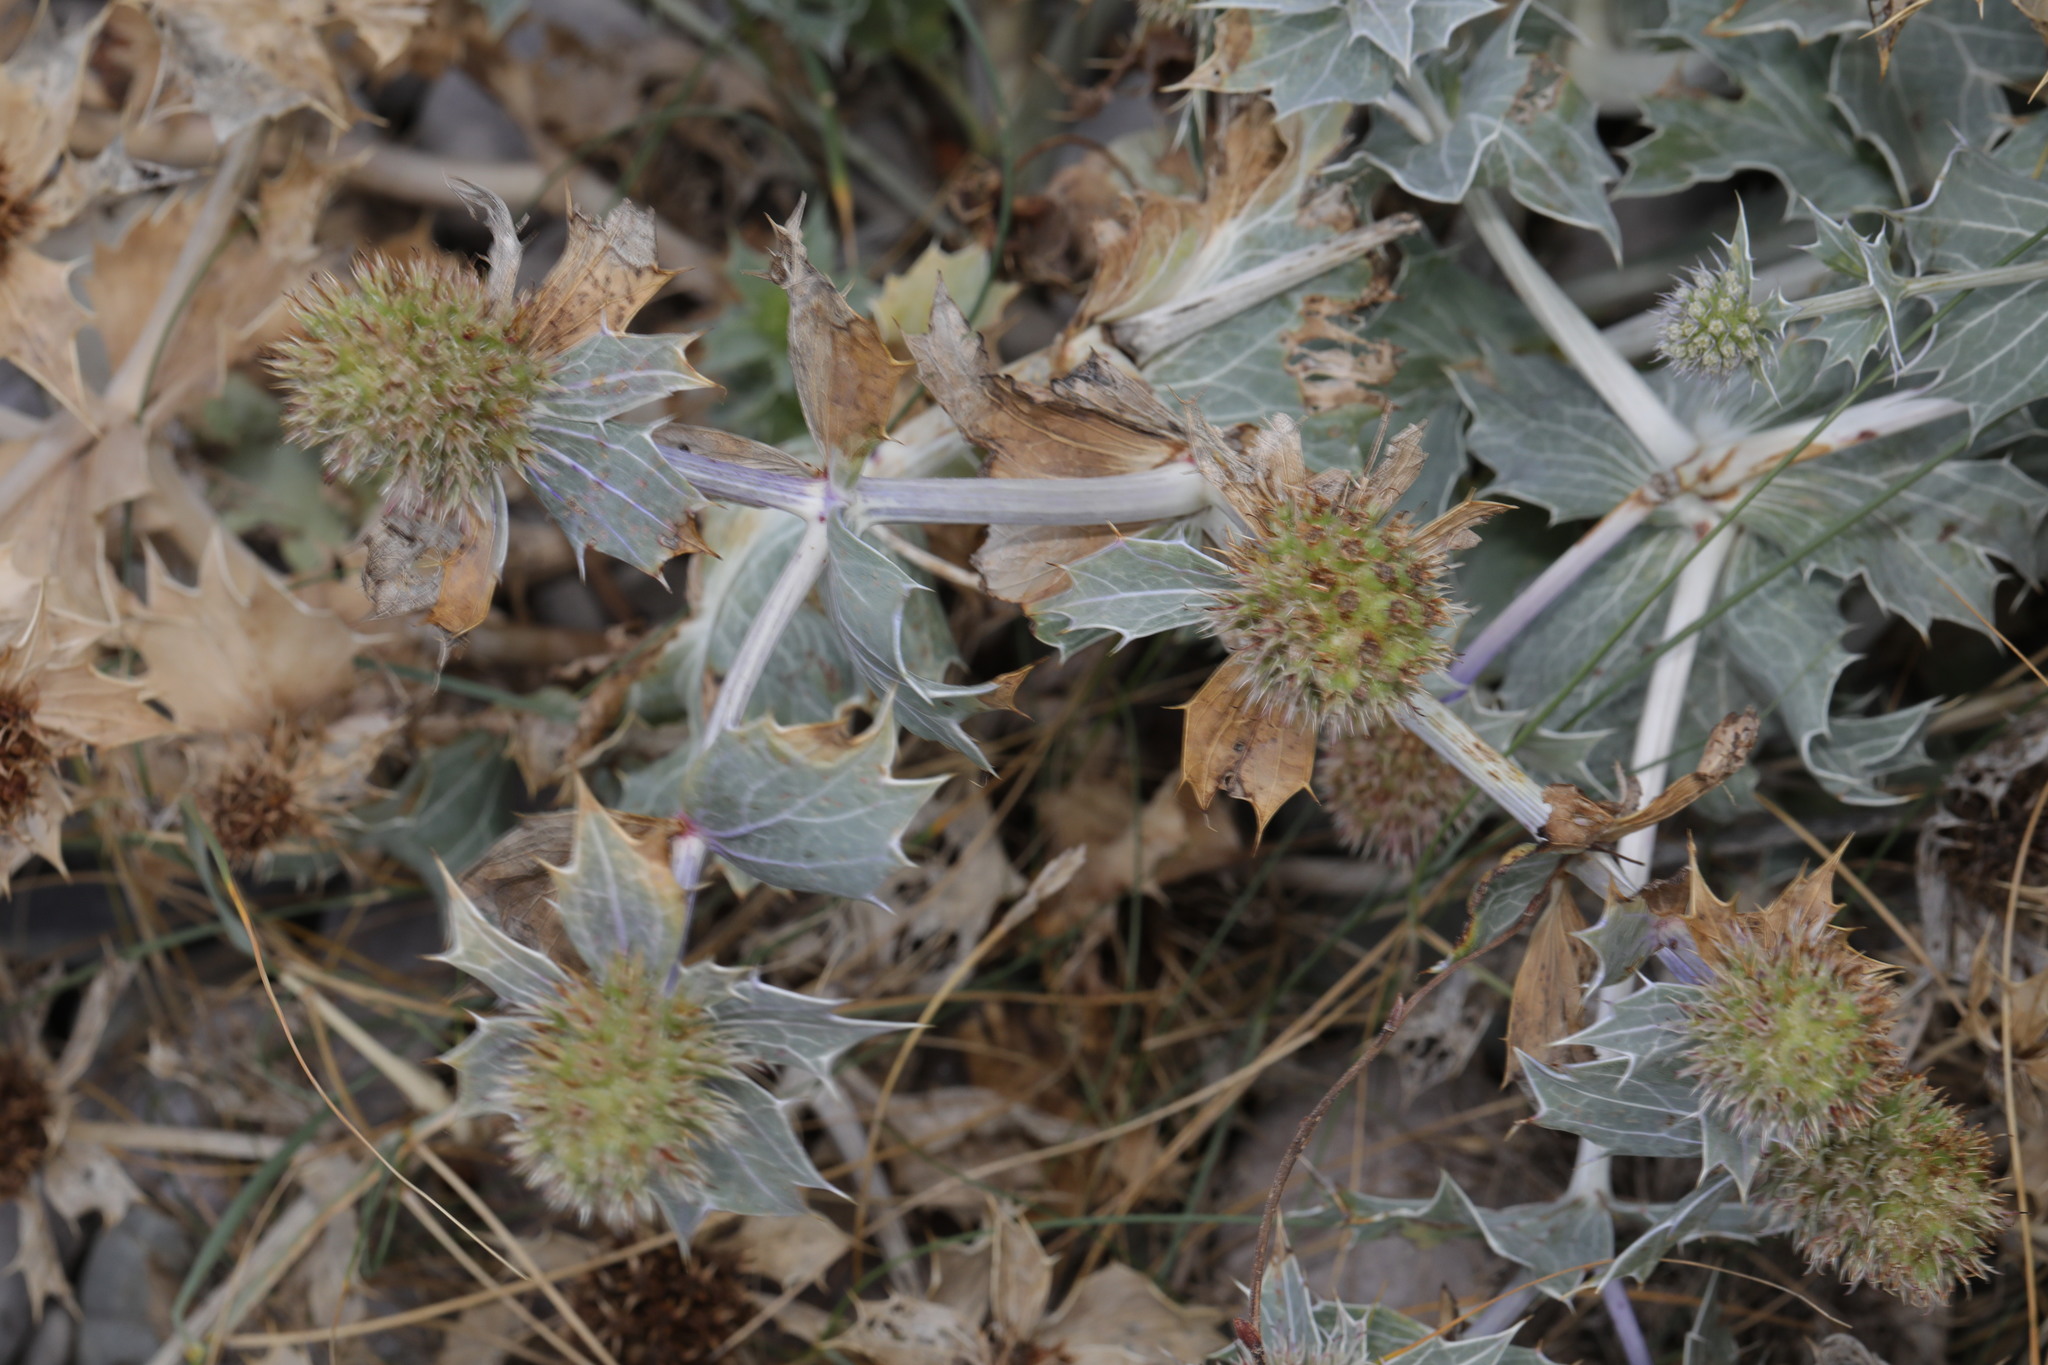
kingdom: Plantae
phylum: Tracheophyta
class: Magnoliopsida
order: Apiales
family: Apiaceae
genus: Eryngium
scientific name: Eryngium maritimum
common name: Sea-holly
